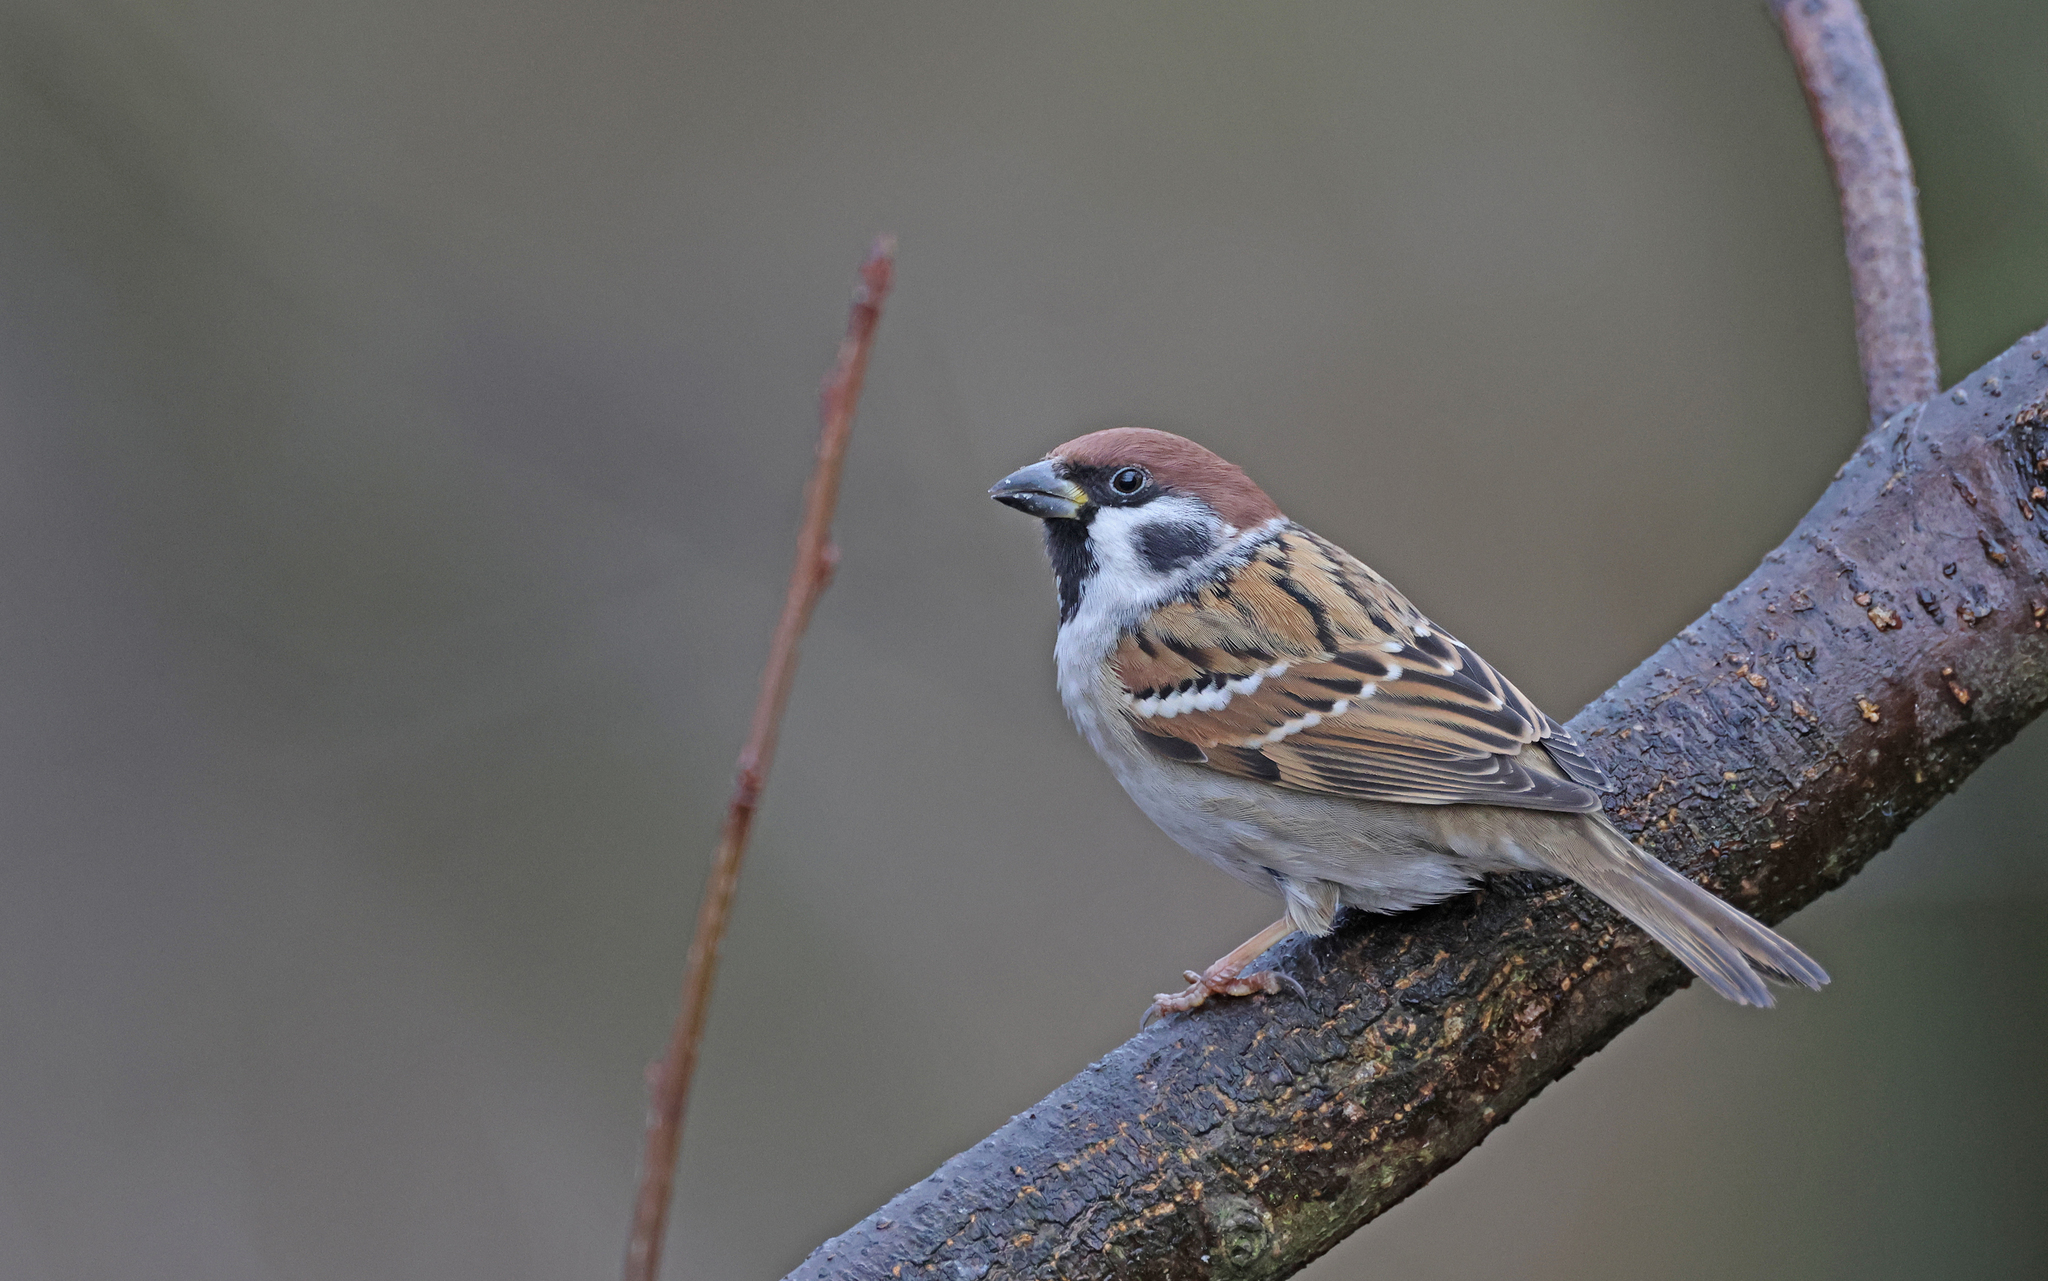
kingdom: Animalia
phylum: Chordata
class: Aves
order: Passeriformes
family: Passeridae
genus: Passer
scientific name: Passer montanus
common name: Eurasian tree sparrow
